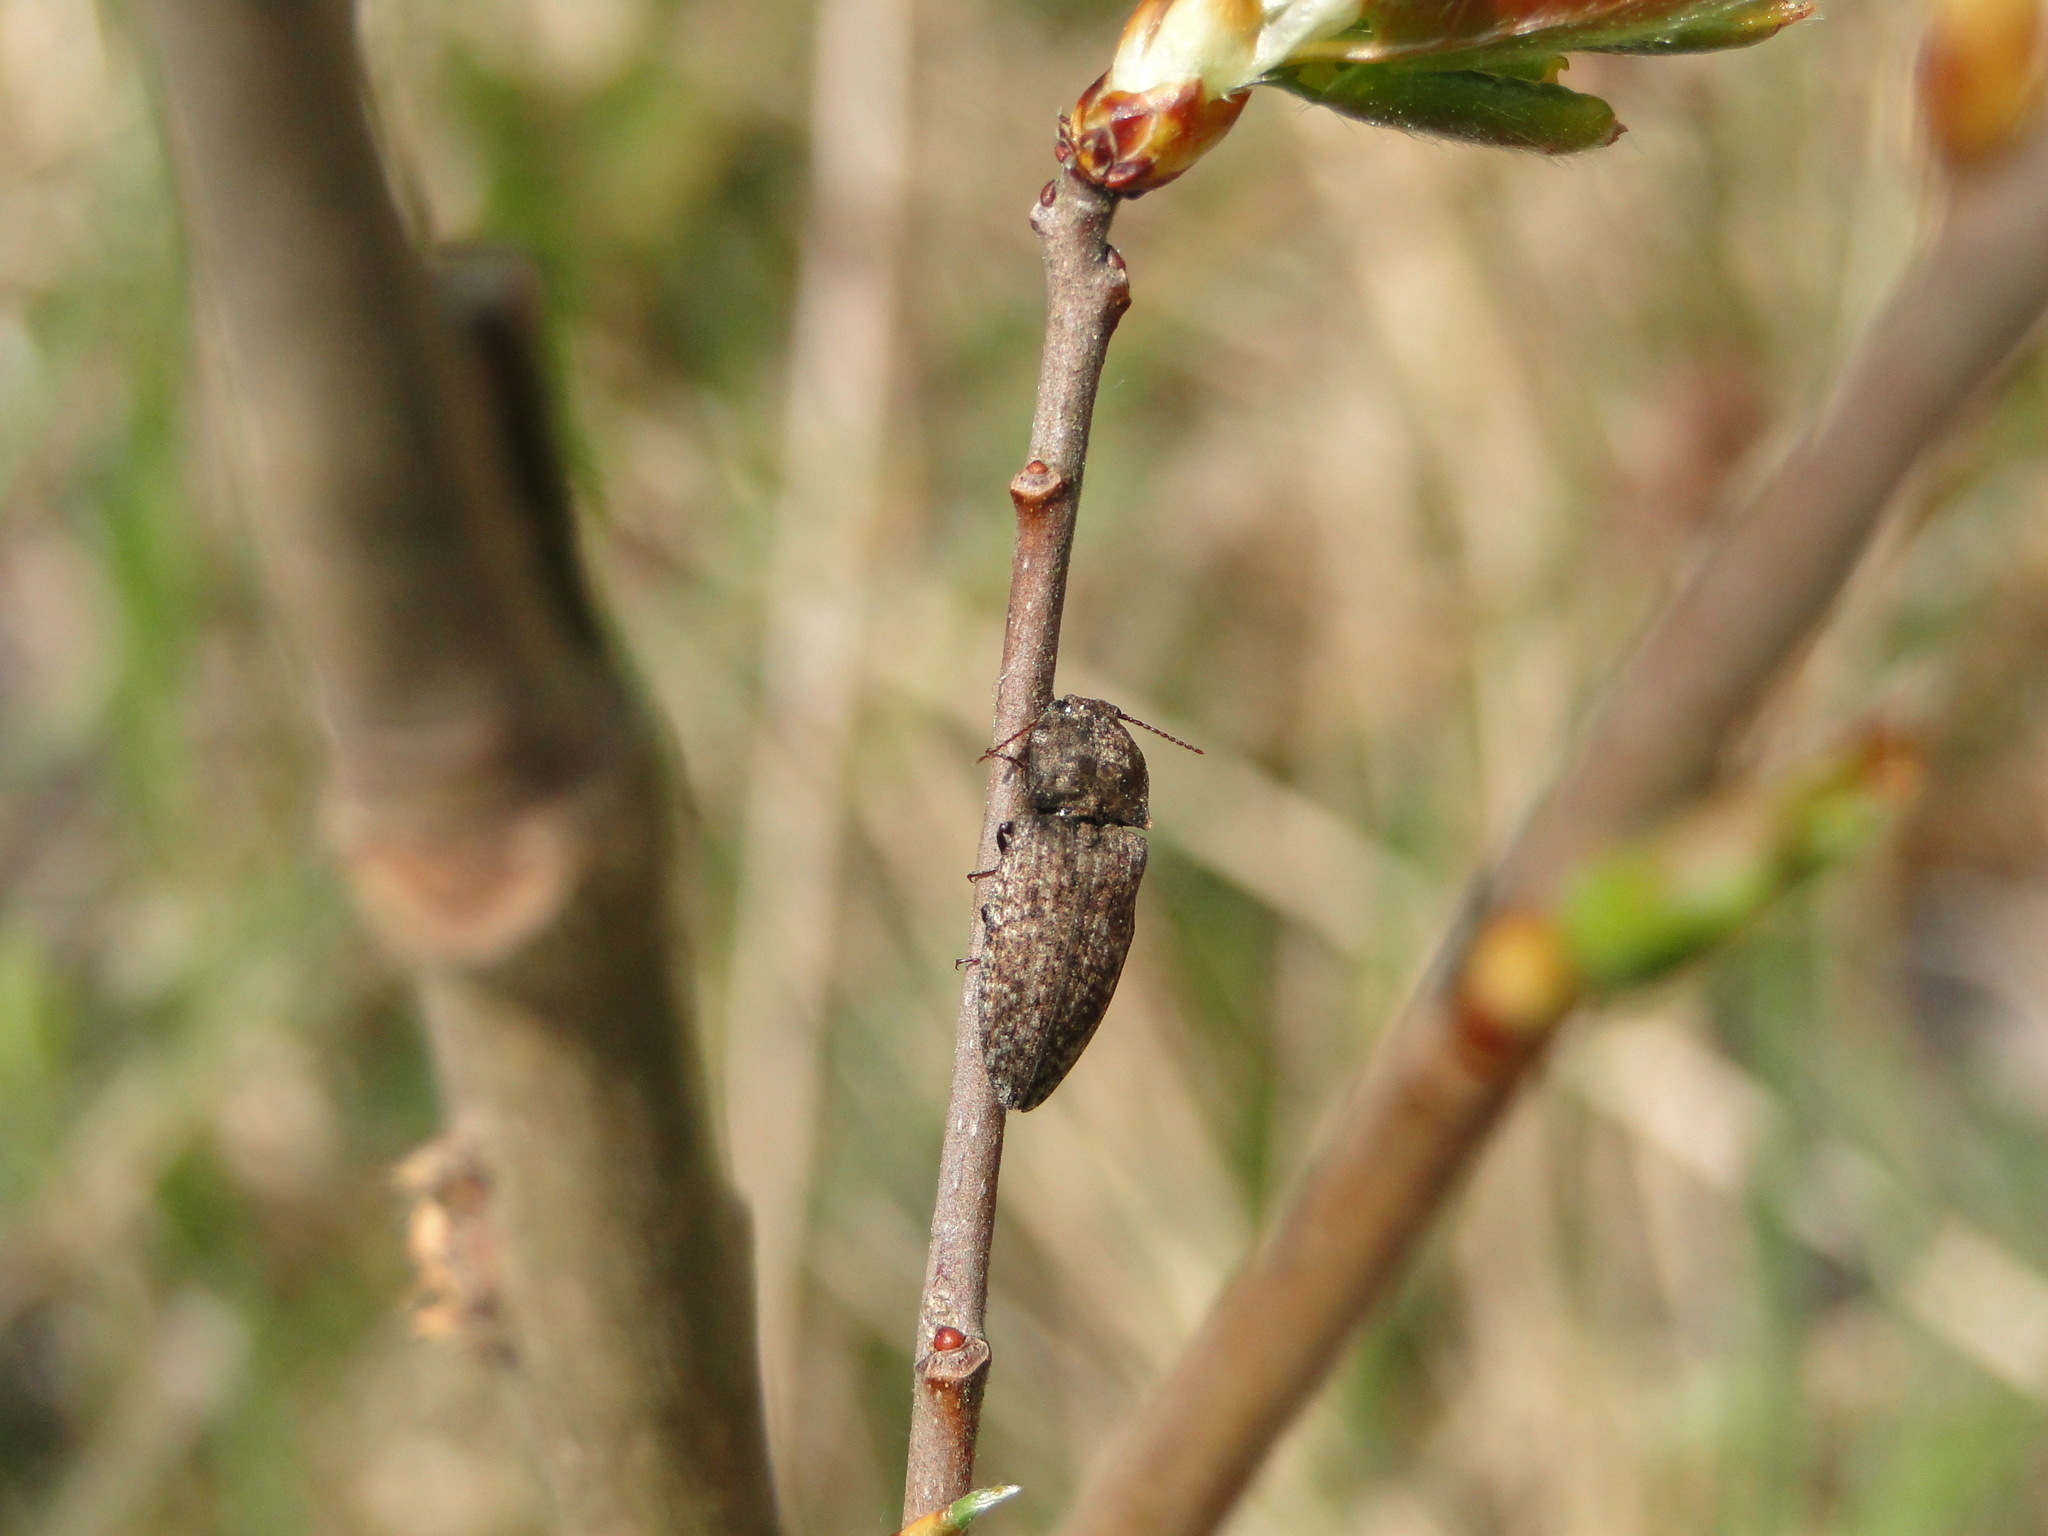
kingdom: Animalia
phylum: Arthropoda
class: Insecta
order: Coleoptera
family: Elateridae
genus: Agrypnus
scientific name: Agrypnus murinus
